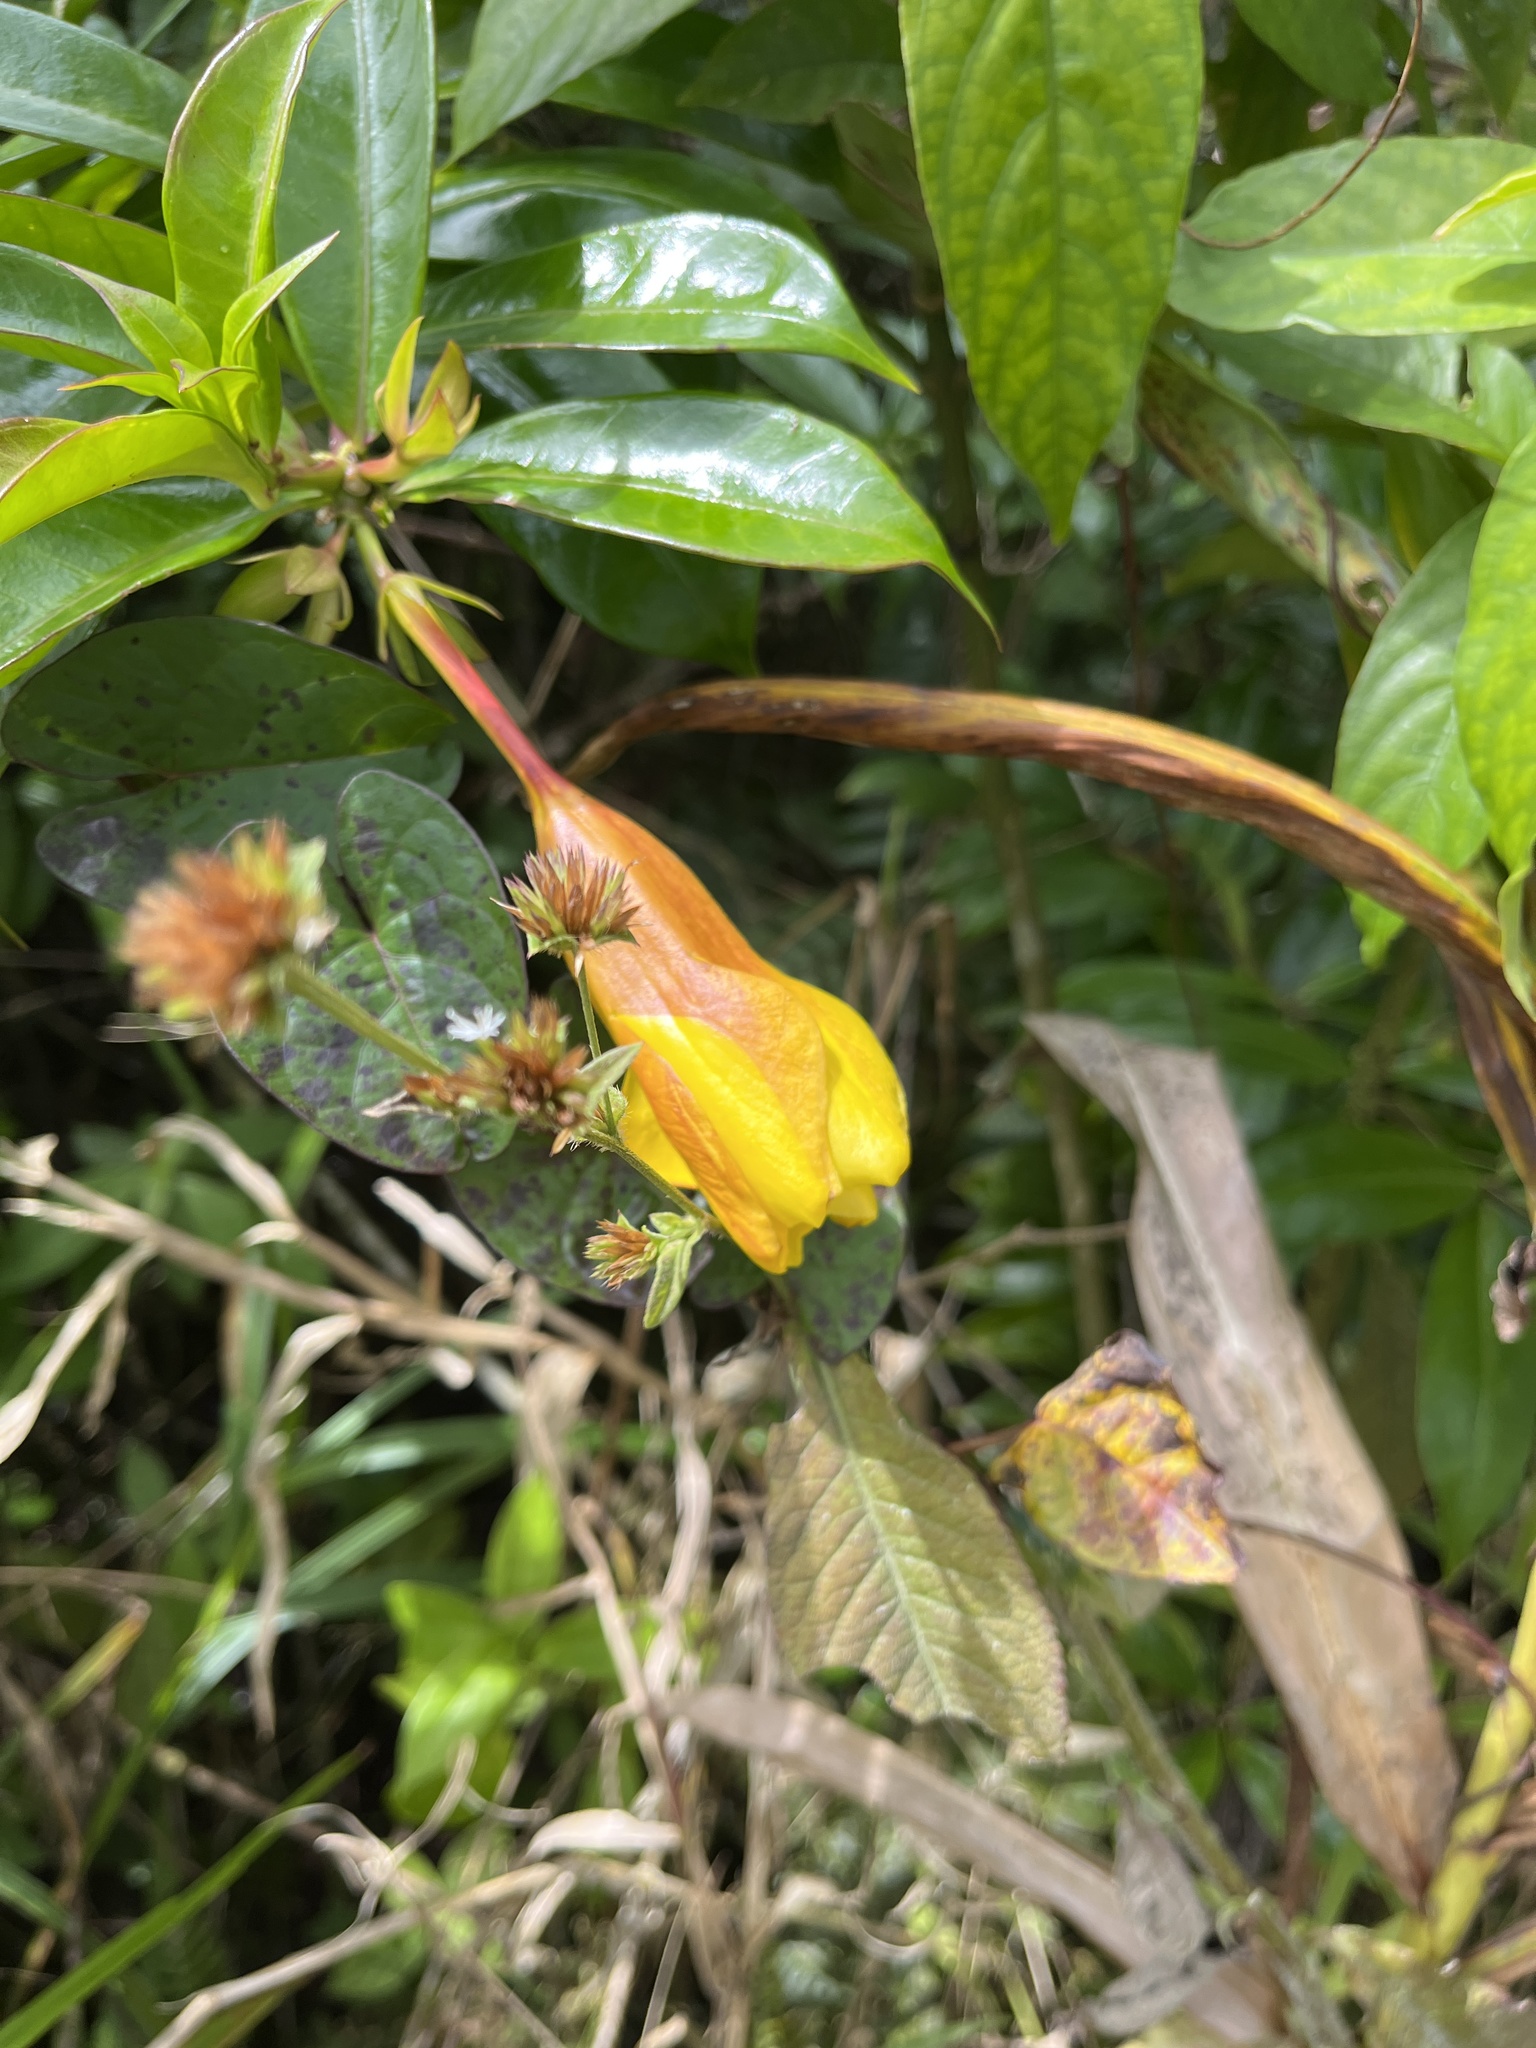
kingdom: Plantae
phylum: Tracheophyta
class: Magnoliopsida
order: Gentianales
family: Apocynaceae
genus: Allamanda
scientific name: Allamanda cathartica
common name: Golden trumpet
